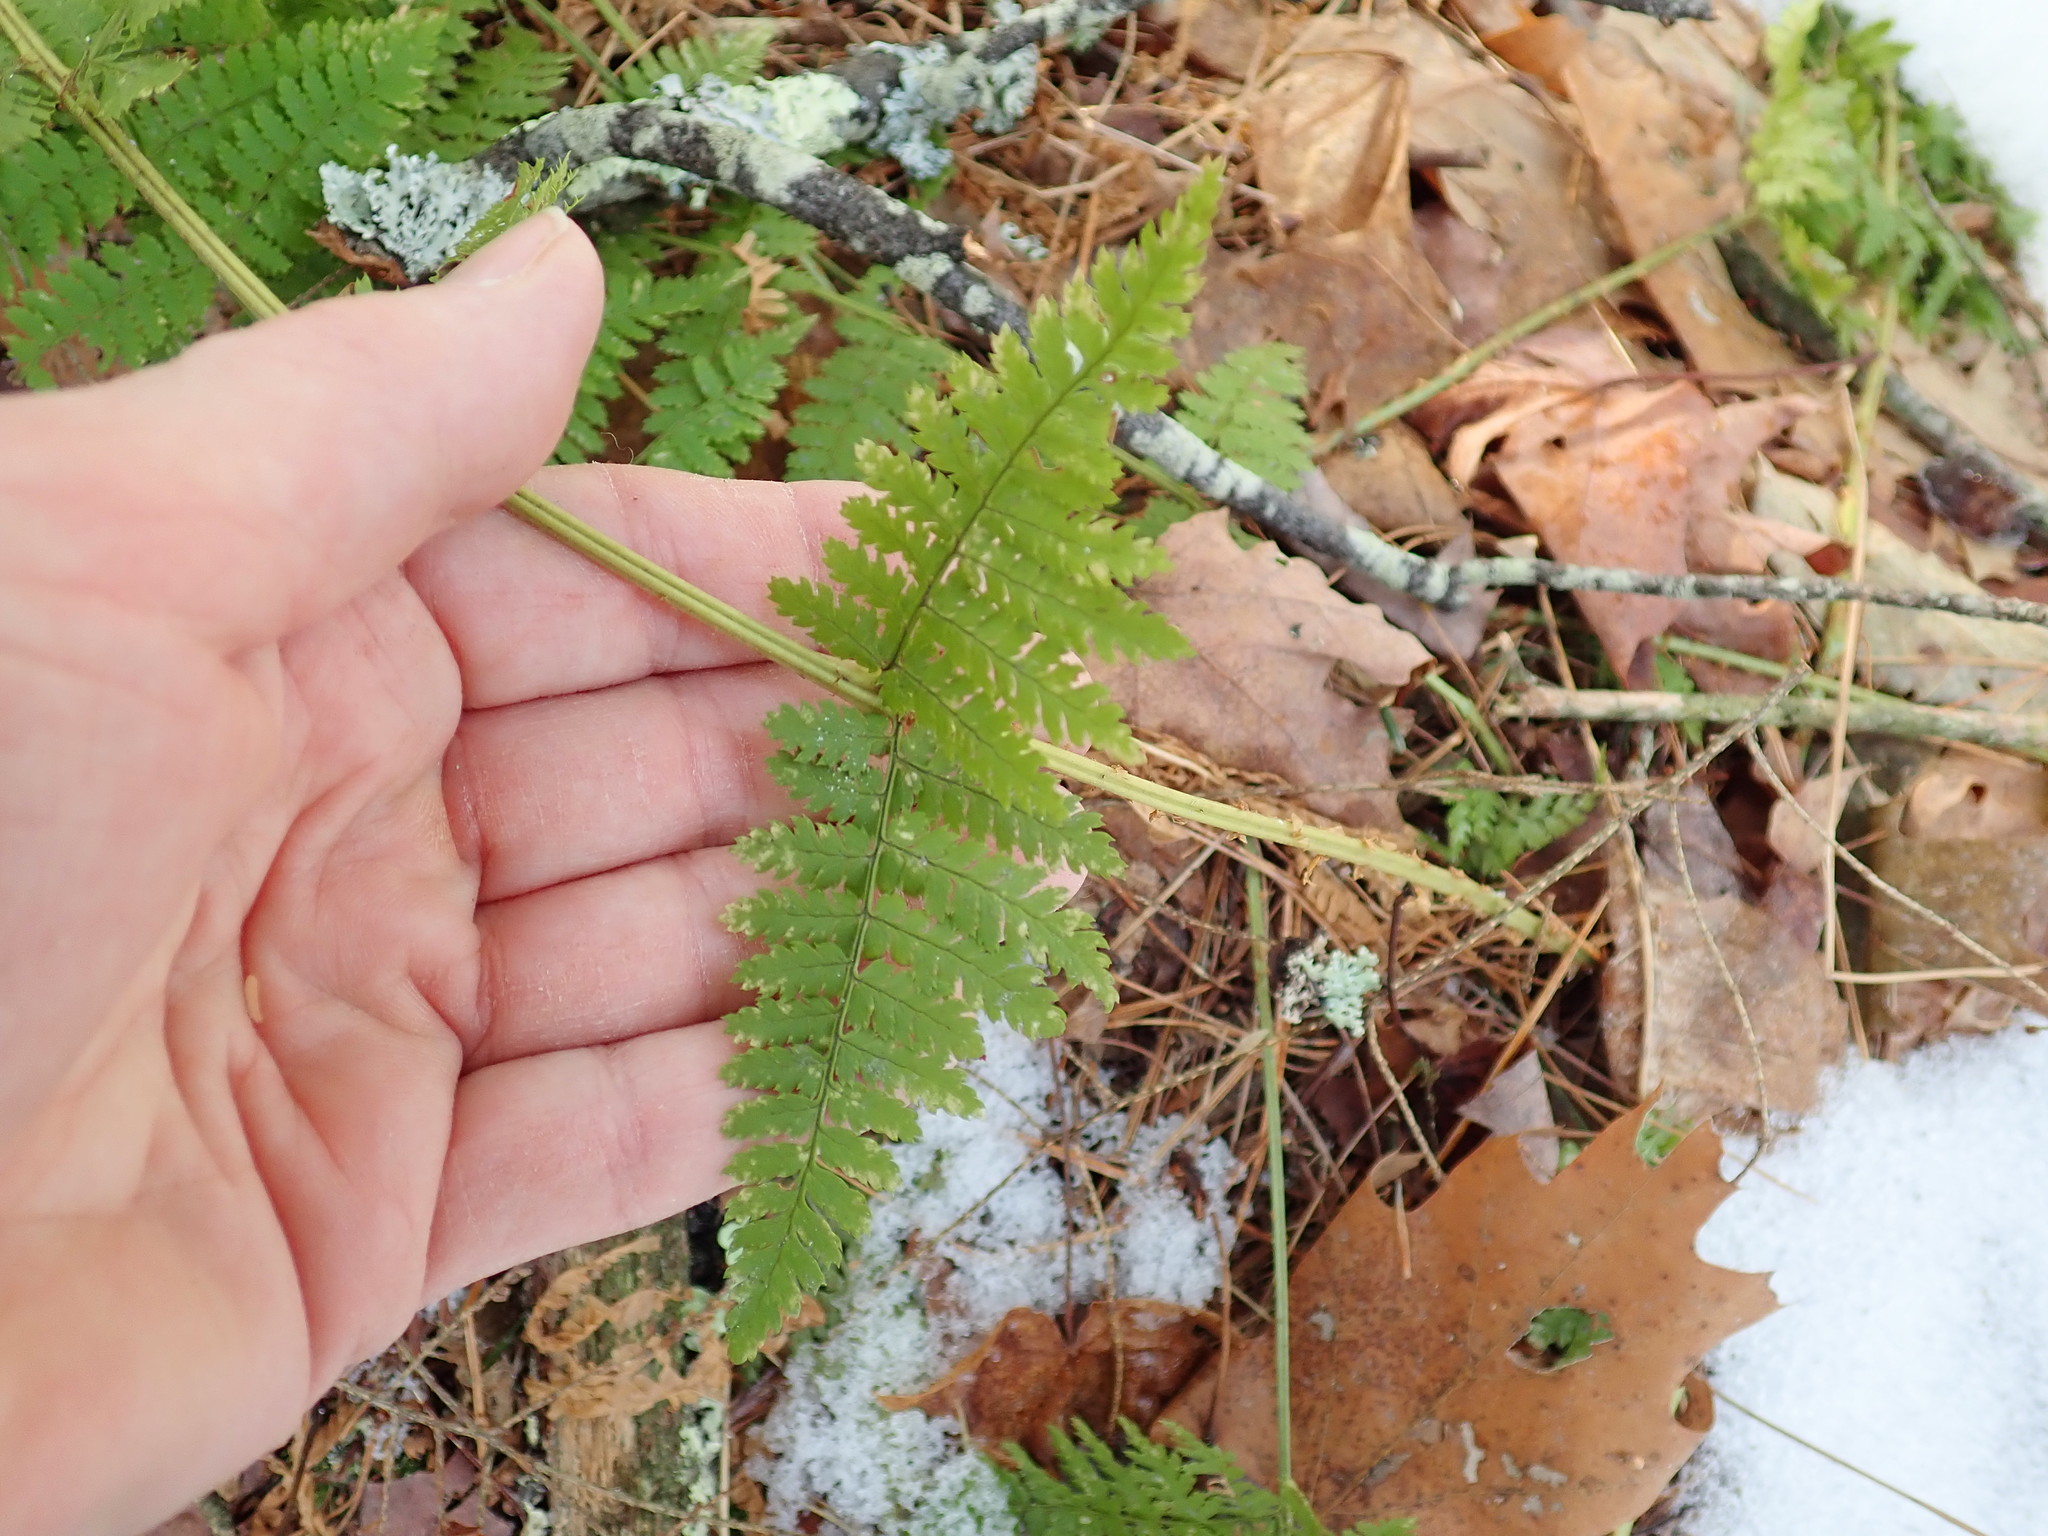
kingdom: Plantae
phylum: Tracheophyta
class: Polypodiopsida
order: Polypodiales
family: Dryopteridaceae
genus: Dryopteris
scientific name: Dryopteris intermedia
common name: Evergreen wood fern
